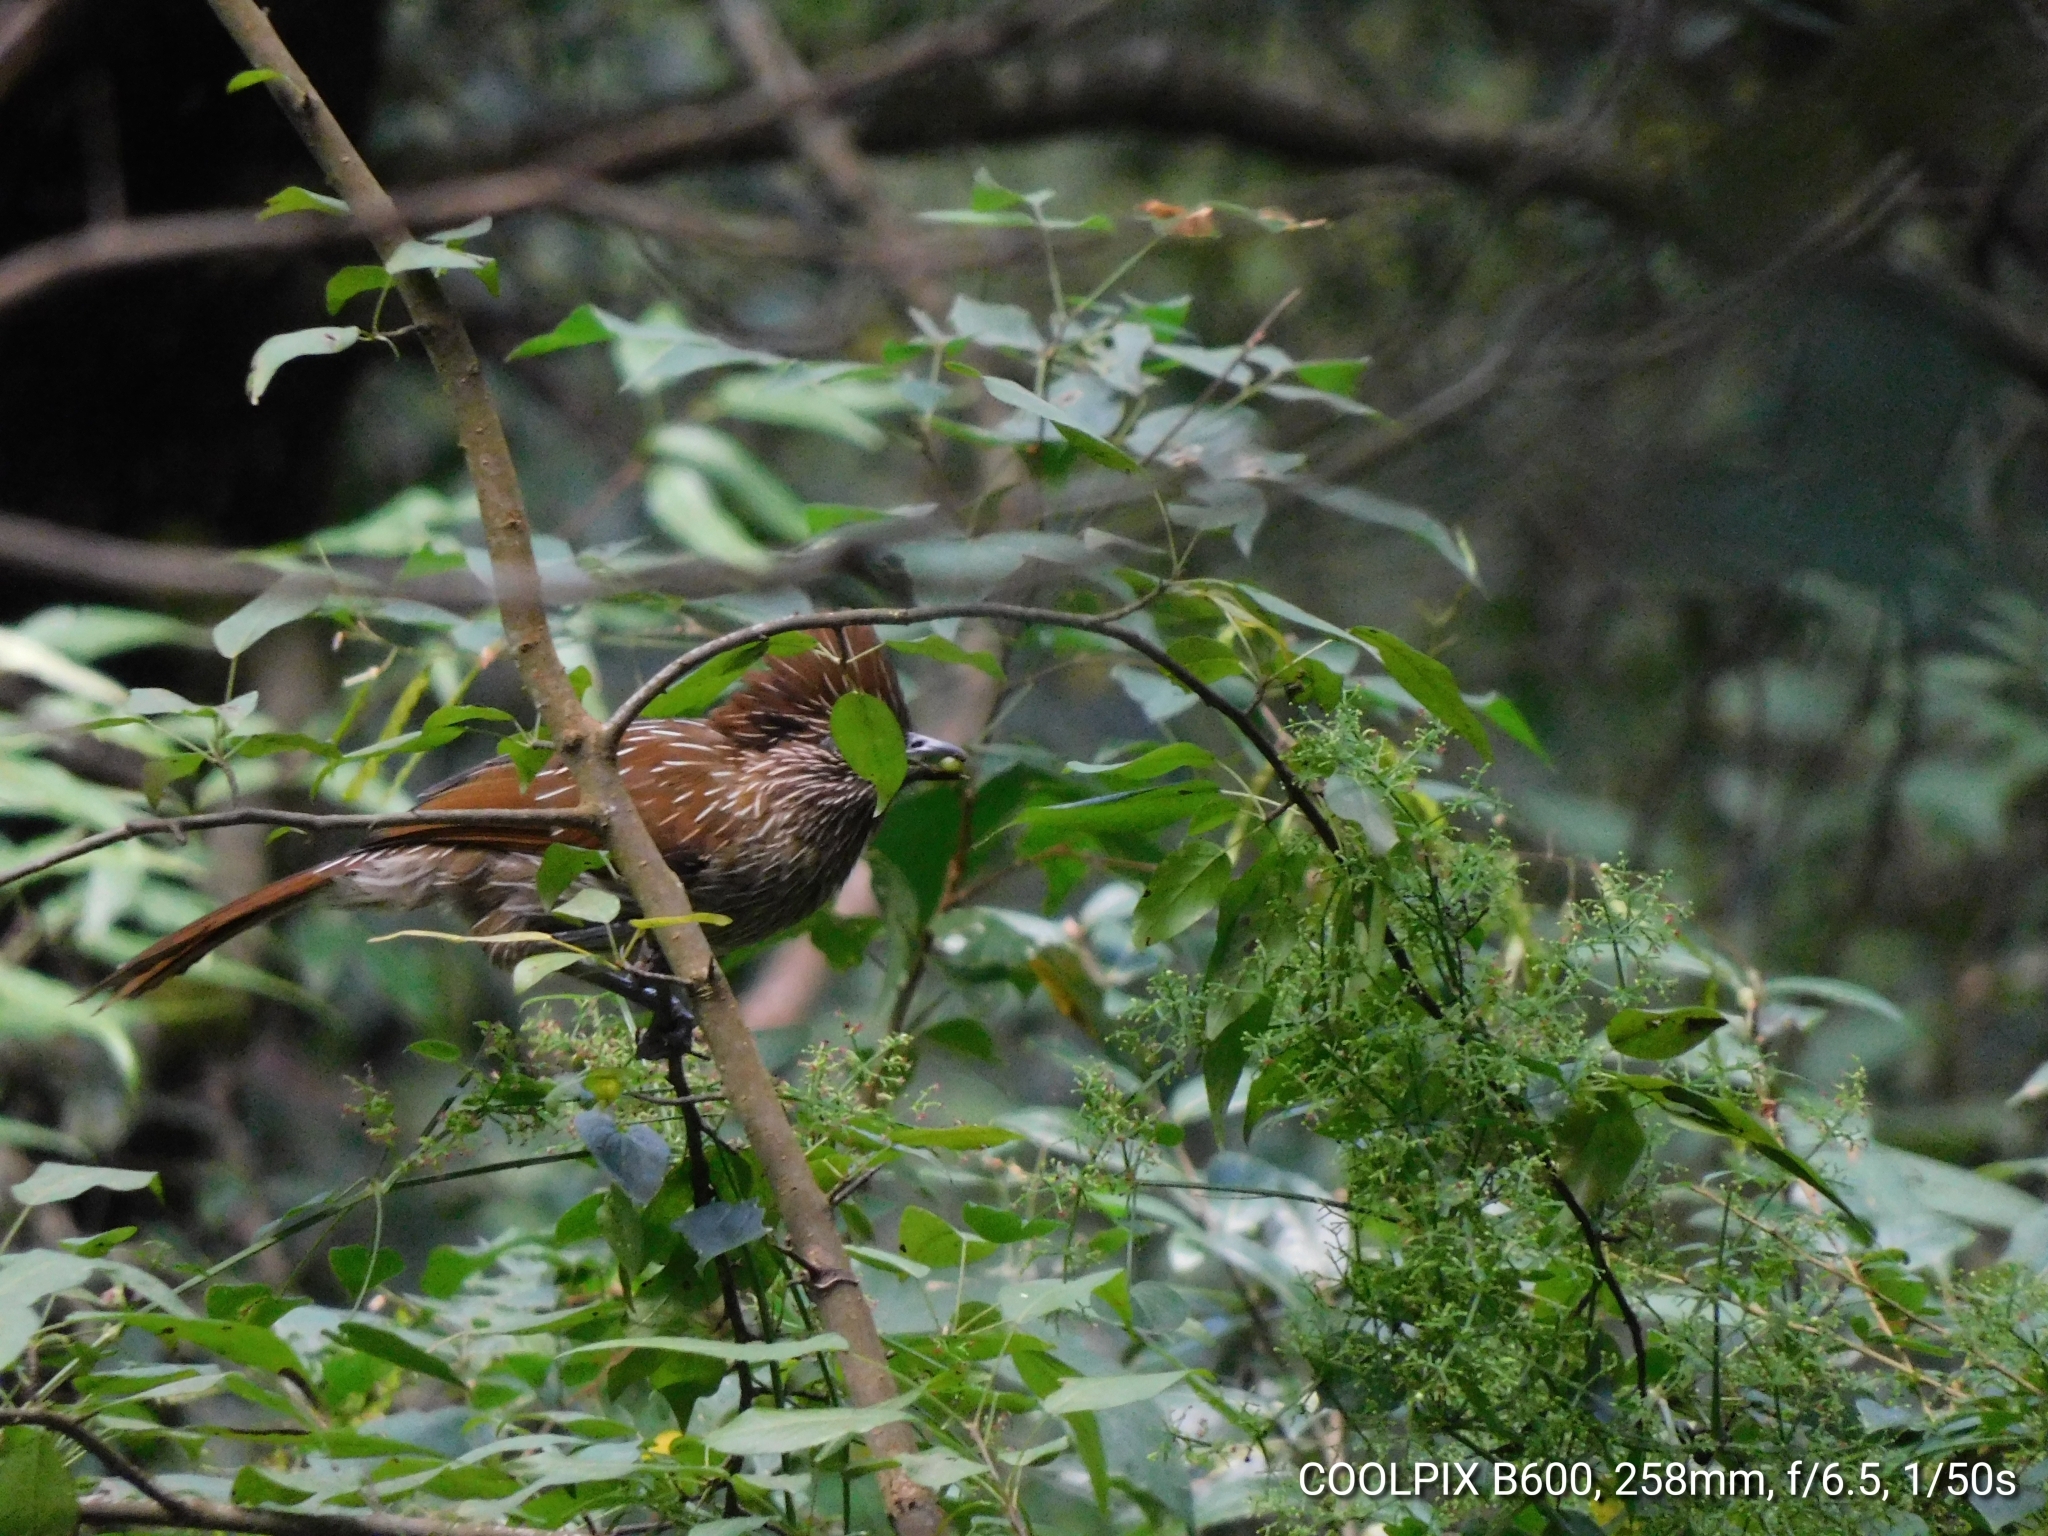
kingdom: Animalia
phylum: Chordata
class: Aves
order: Passeriformes
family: Leiothrichidae
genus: Garrulax
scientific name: Garrulax striatus
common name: Striated laughingthrush
